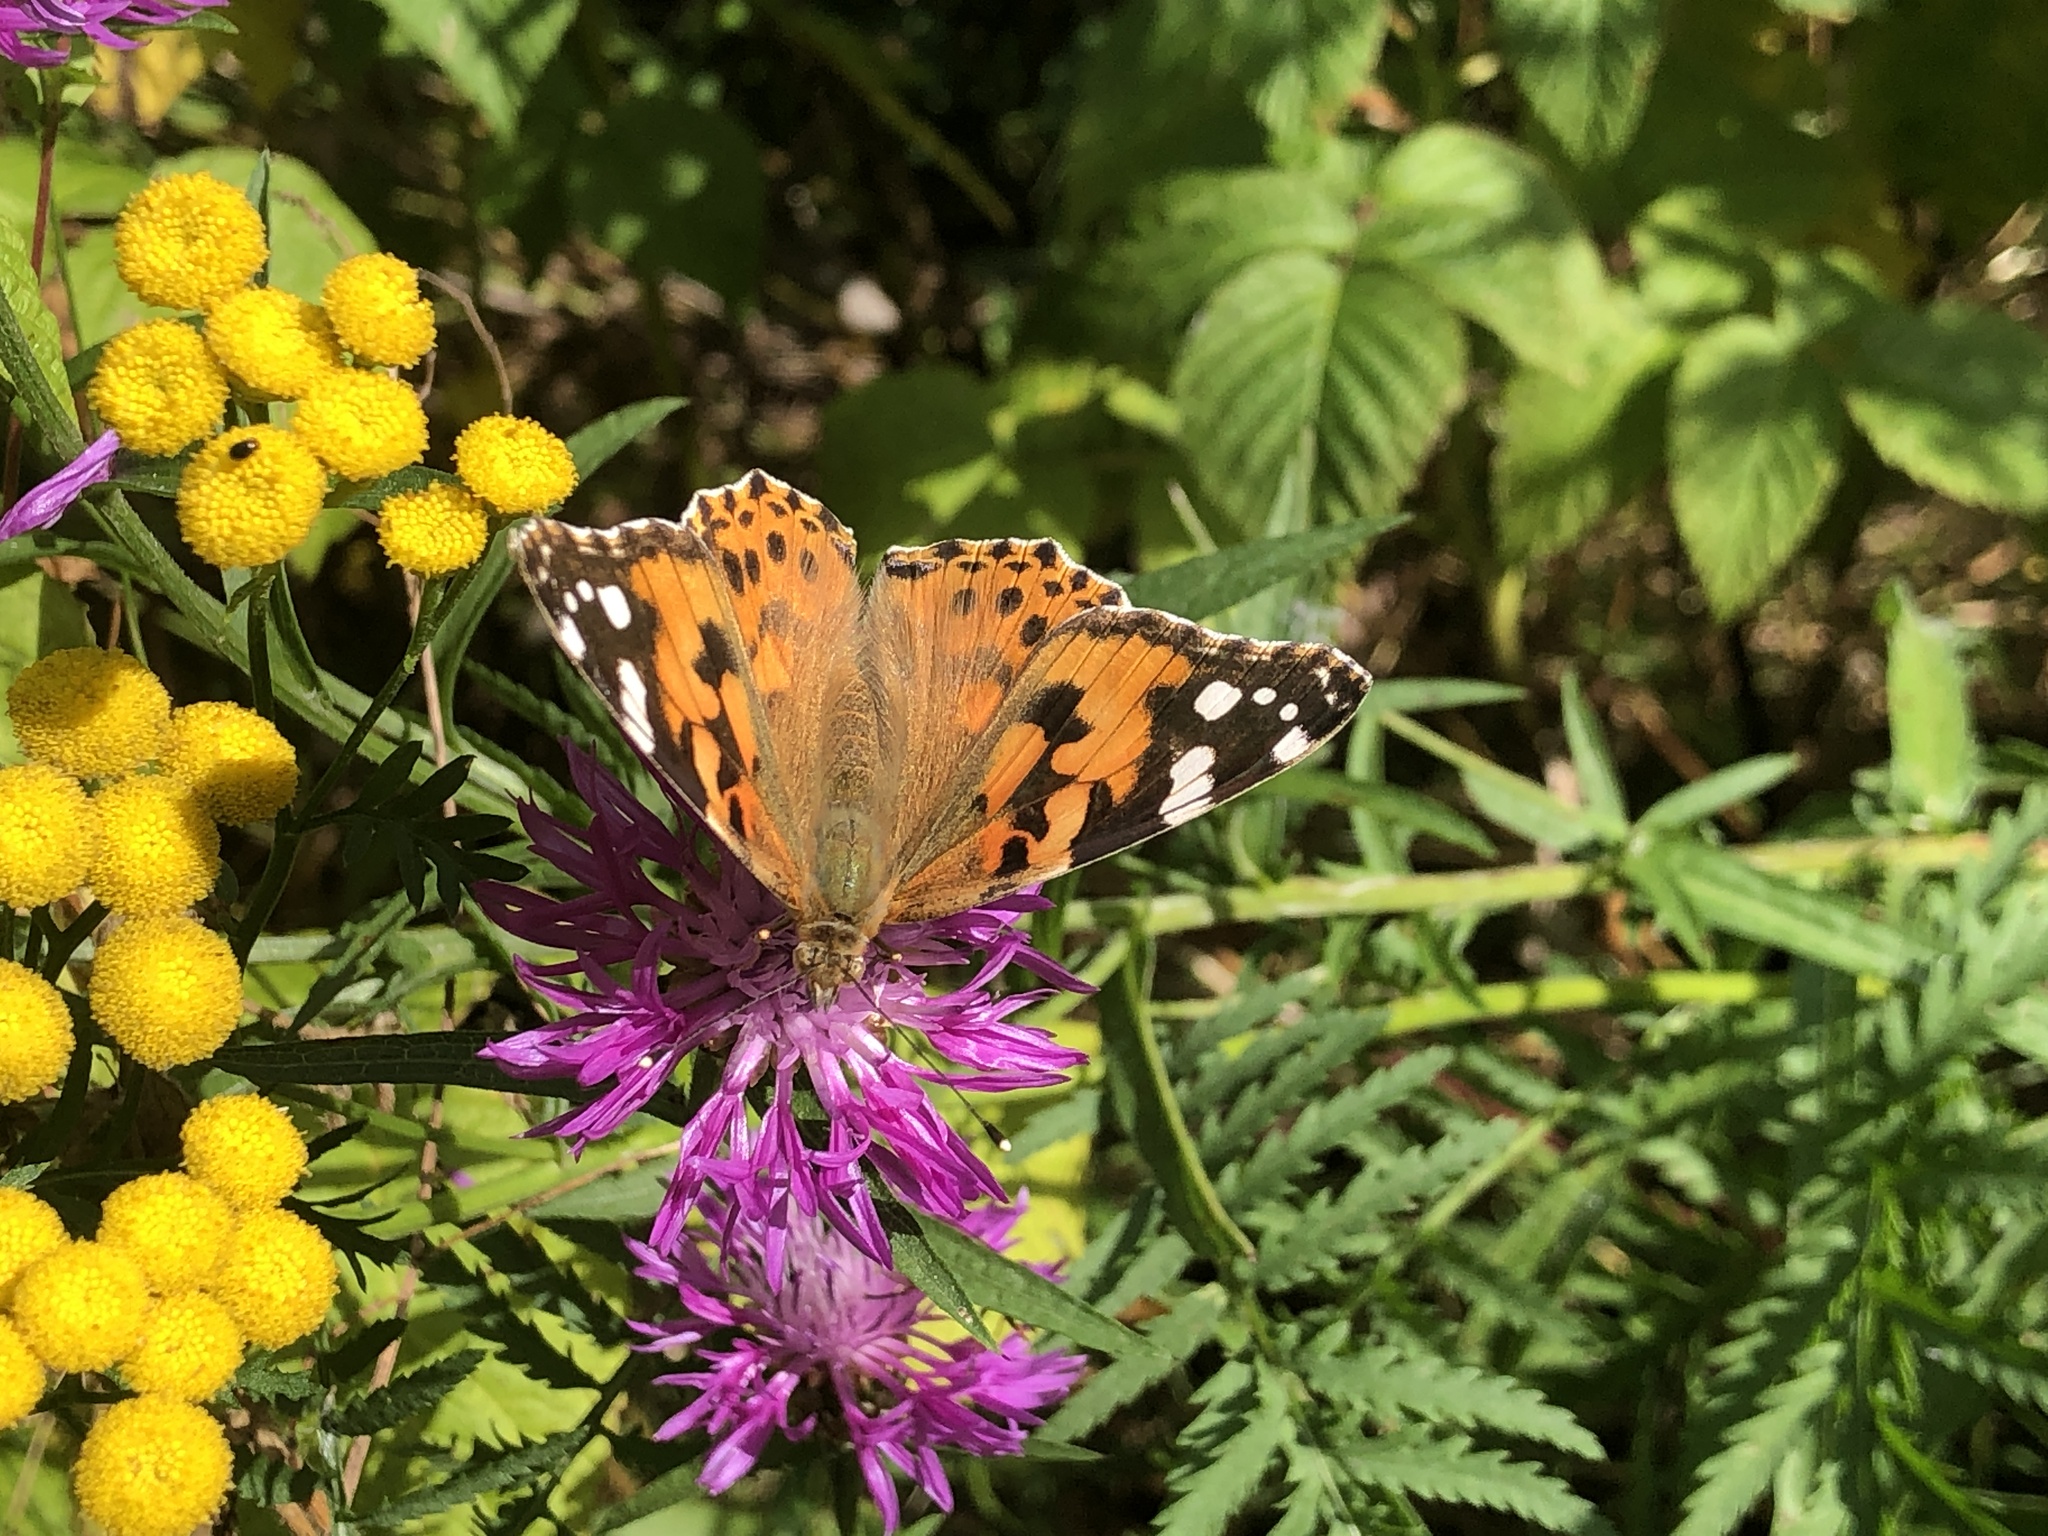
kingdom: Animalia
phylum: Arthropoda
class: Insecta
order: Lepidoptera
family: Nymphalidae
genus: Vanessa
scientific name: Vanessa cardui
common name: Painted lady
